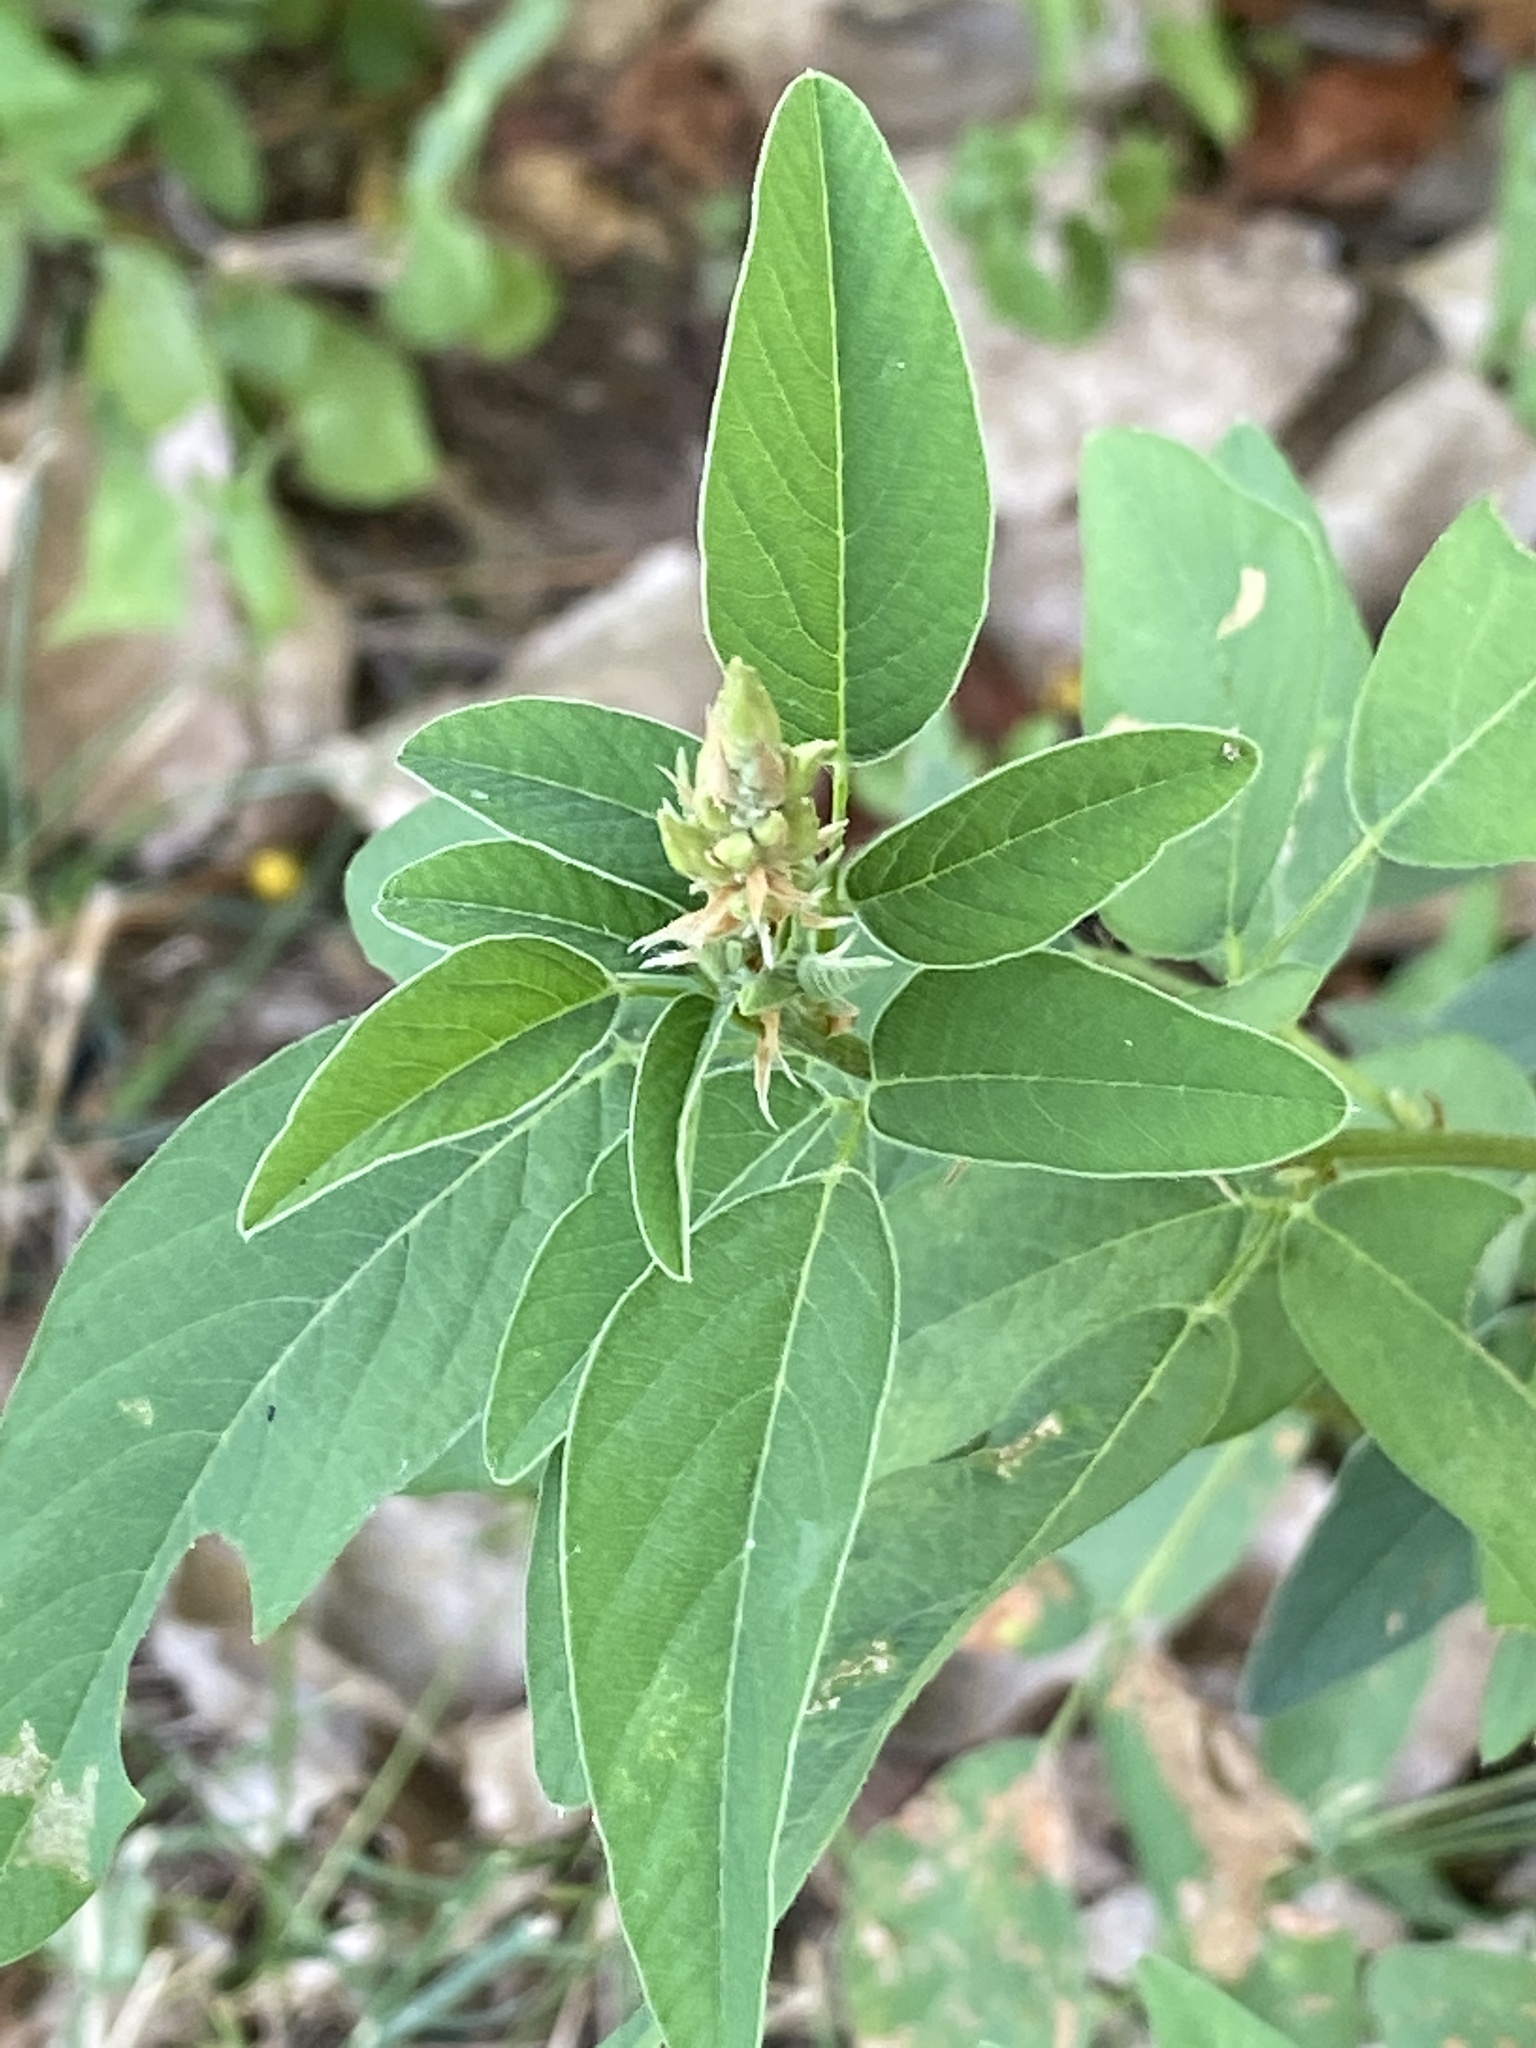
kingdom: Plantae
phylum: Tracheophyta
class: Magnoliopsida
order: Fabales
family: Fabaceae
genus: Desmodium
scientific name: Desmodium canadense
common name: Canada tick-trefoil
